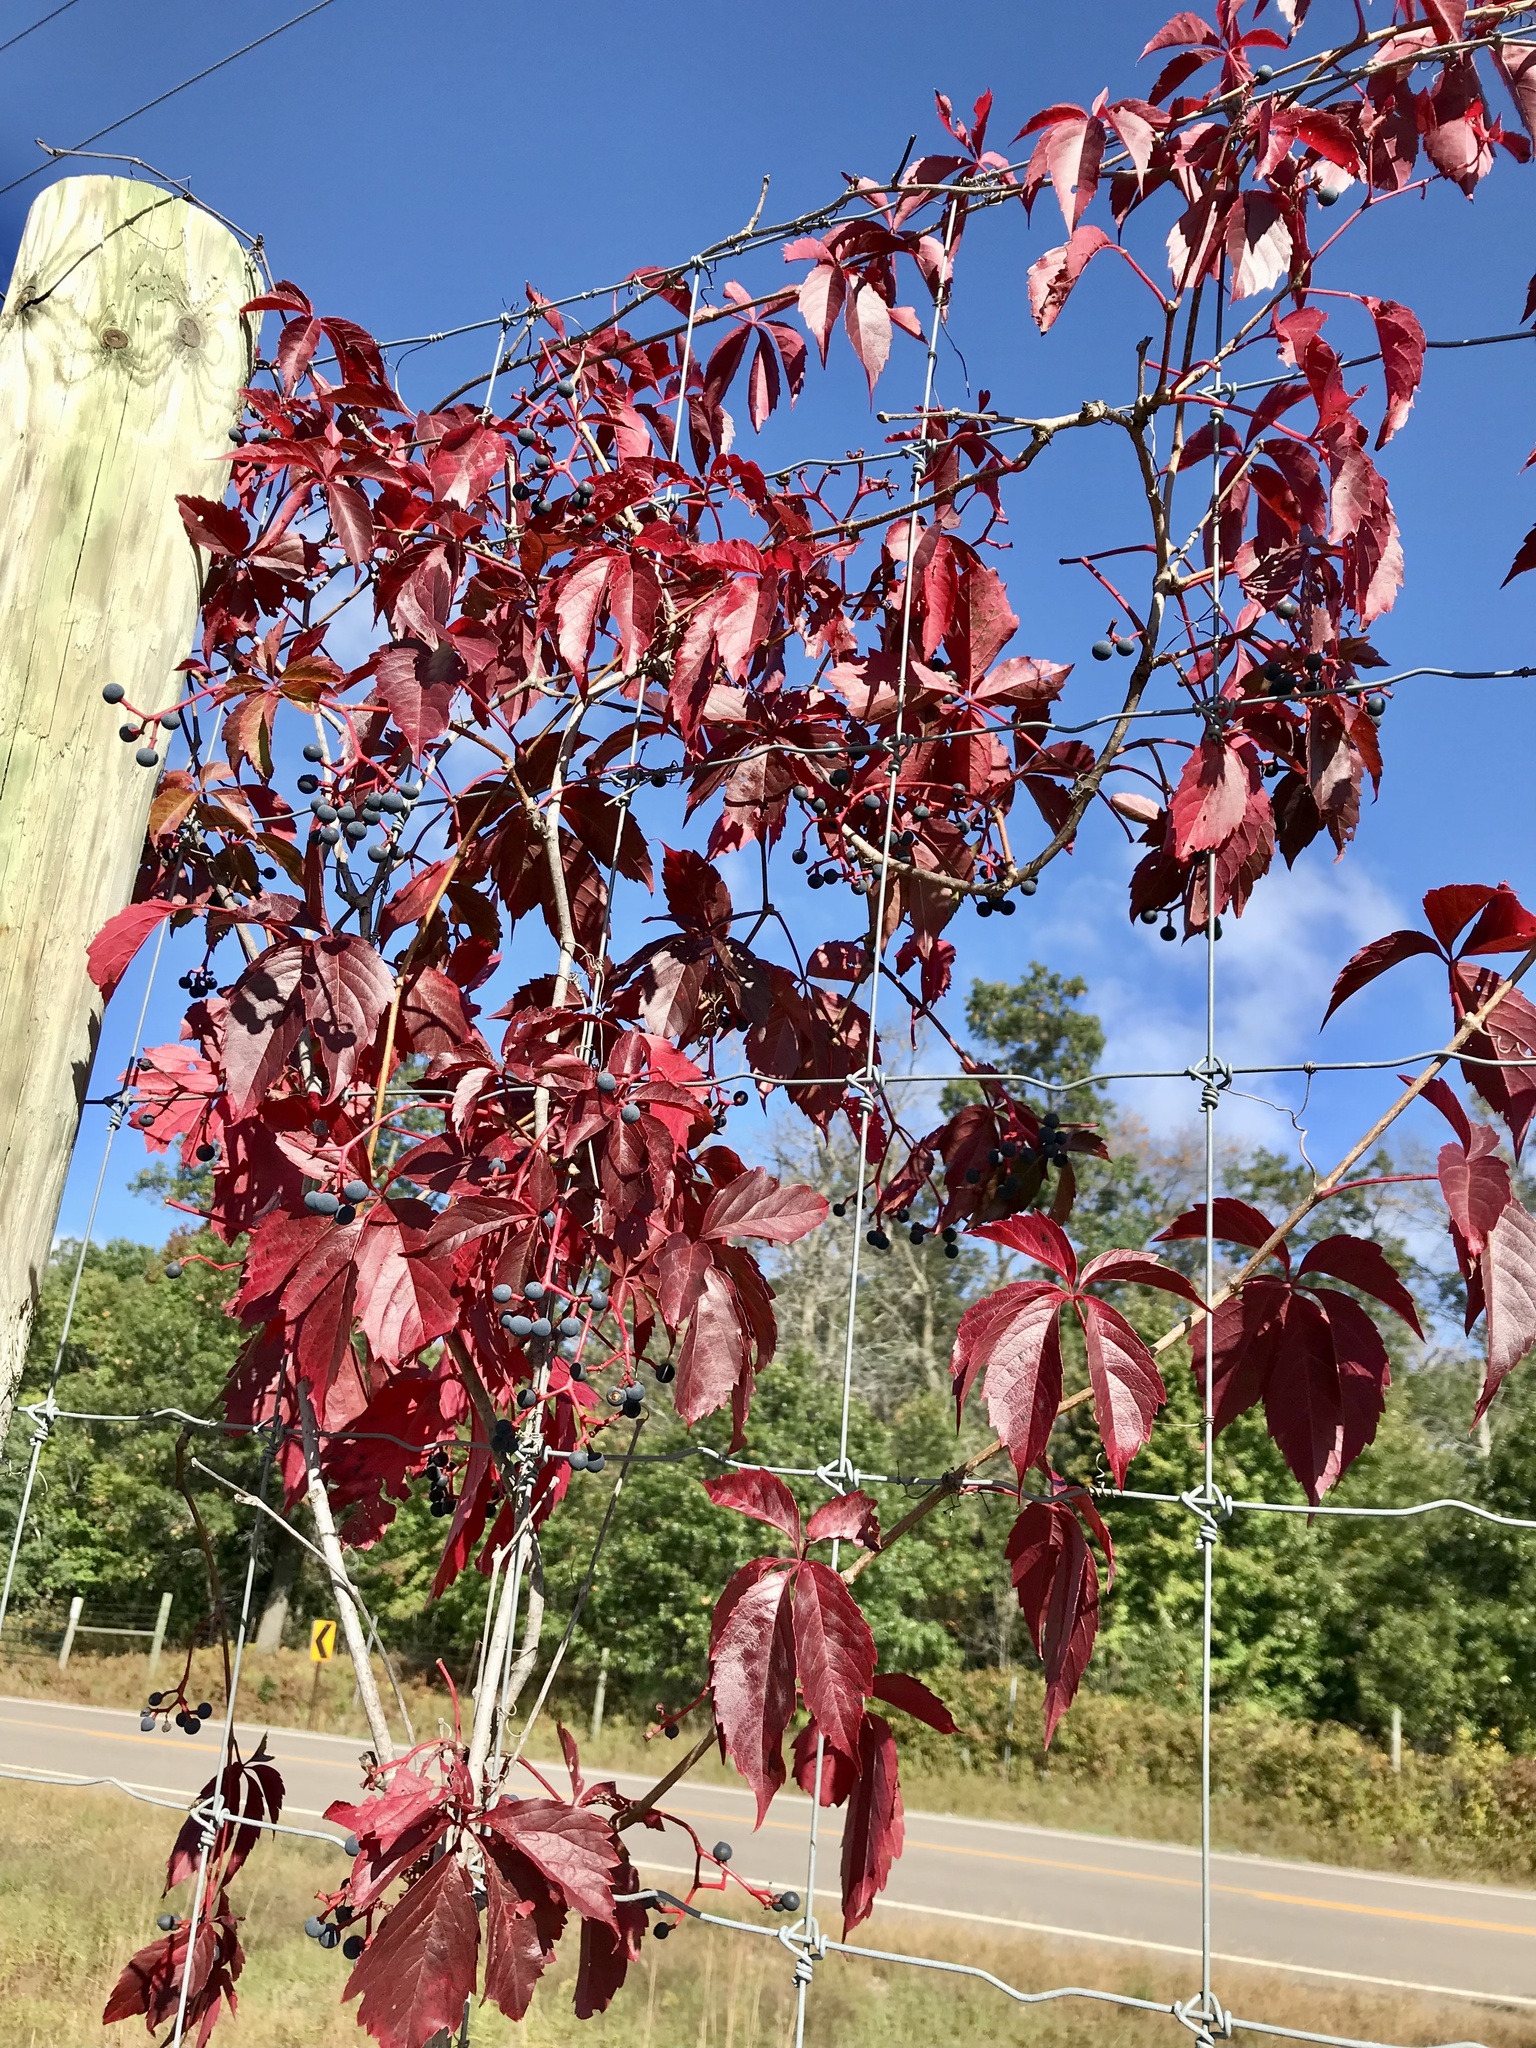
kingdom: Plantae
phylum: Tracheophyta
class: Magnoliopsida
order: Vitales
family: Vitaceae
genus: Parthenocissus
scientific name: Parthenocissus inserta
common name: False virginia-creeper
